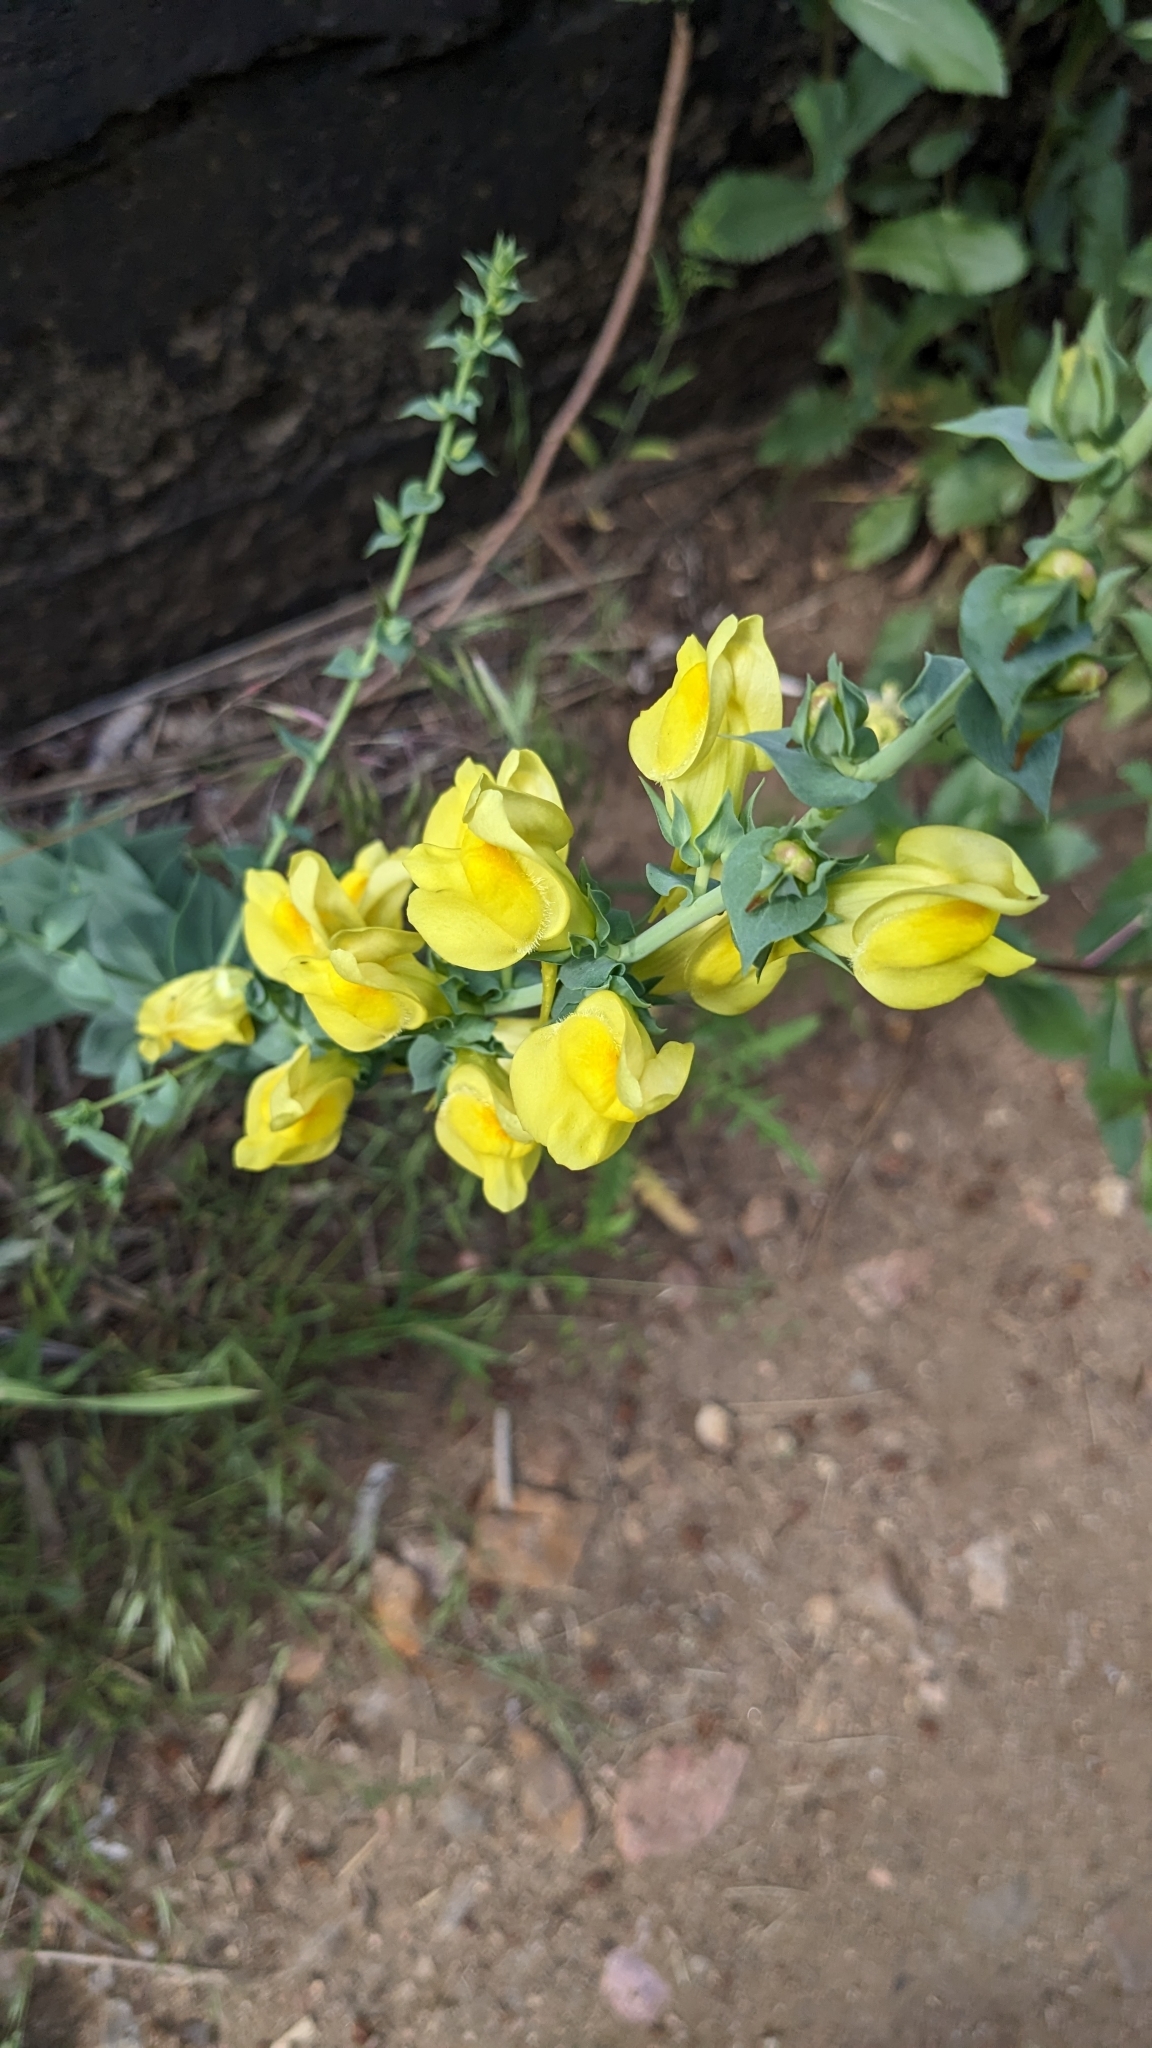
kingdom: Plantae
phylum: Tracheophyta
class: Magnoliopsida
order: Lamiales
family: Plantaginaceae
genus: Linaria
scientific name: Linaria dalmatica
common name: Dalmatian toadflax
